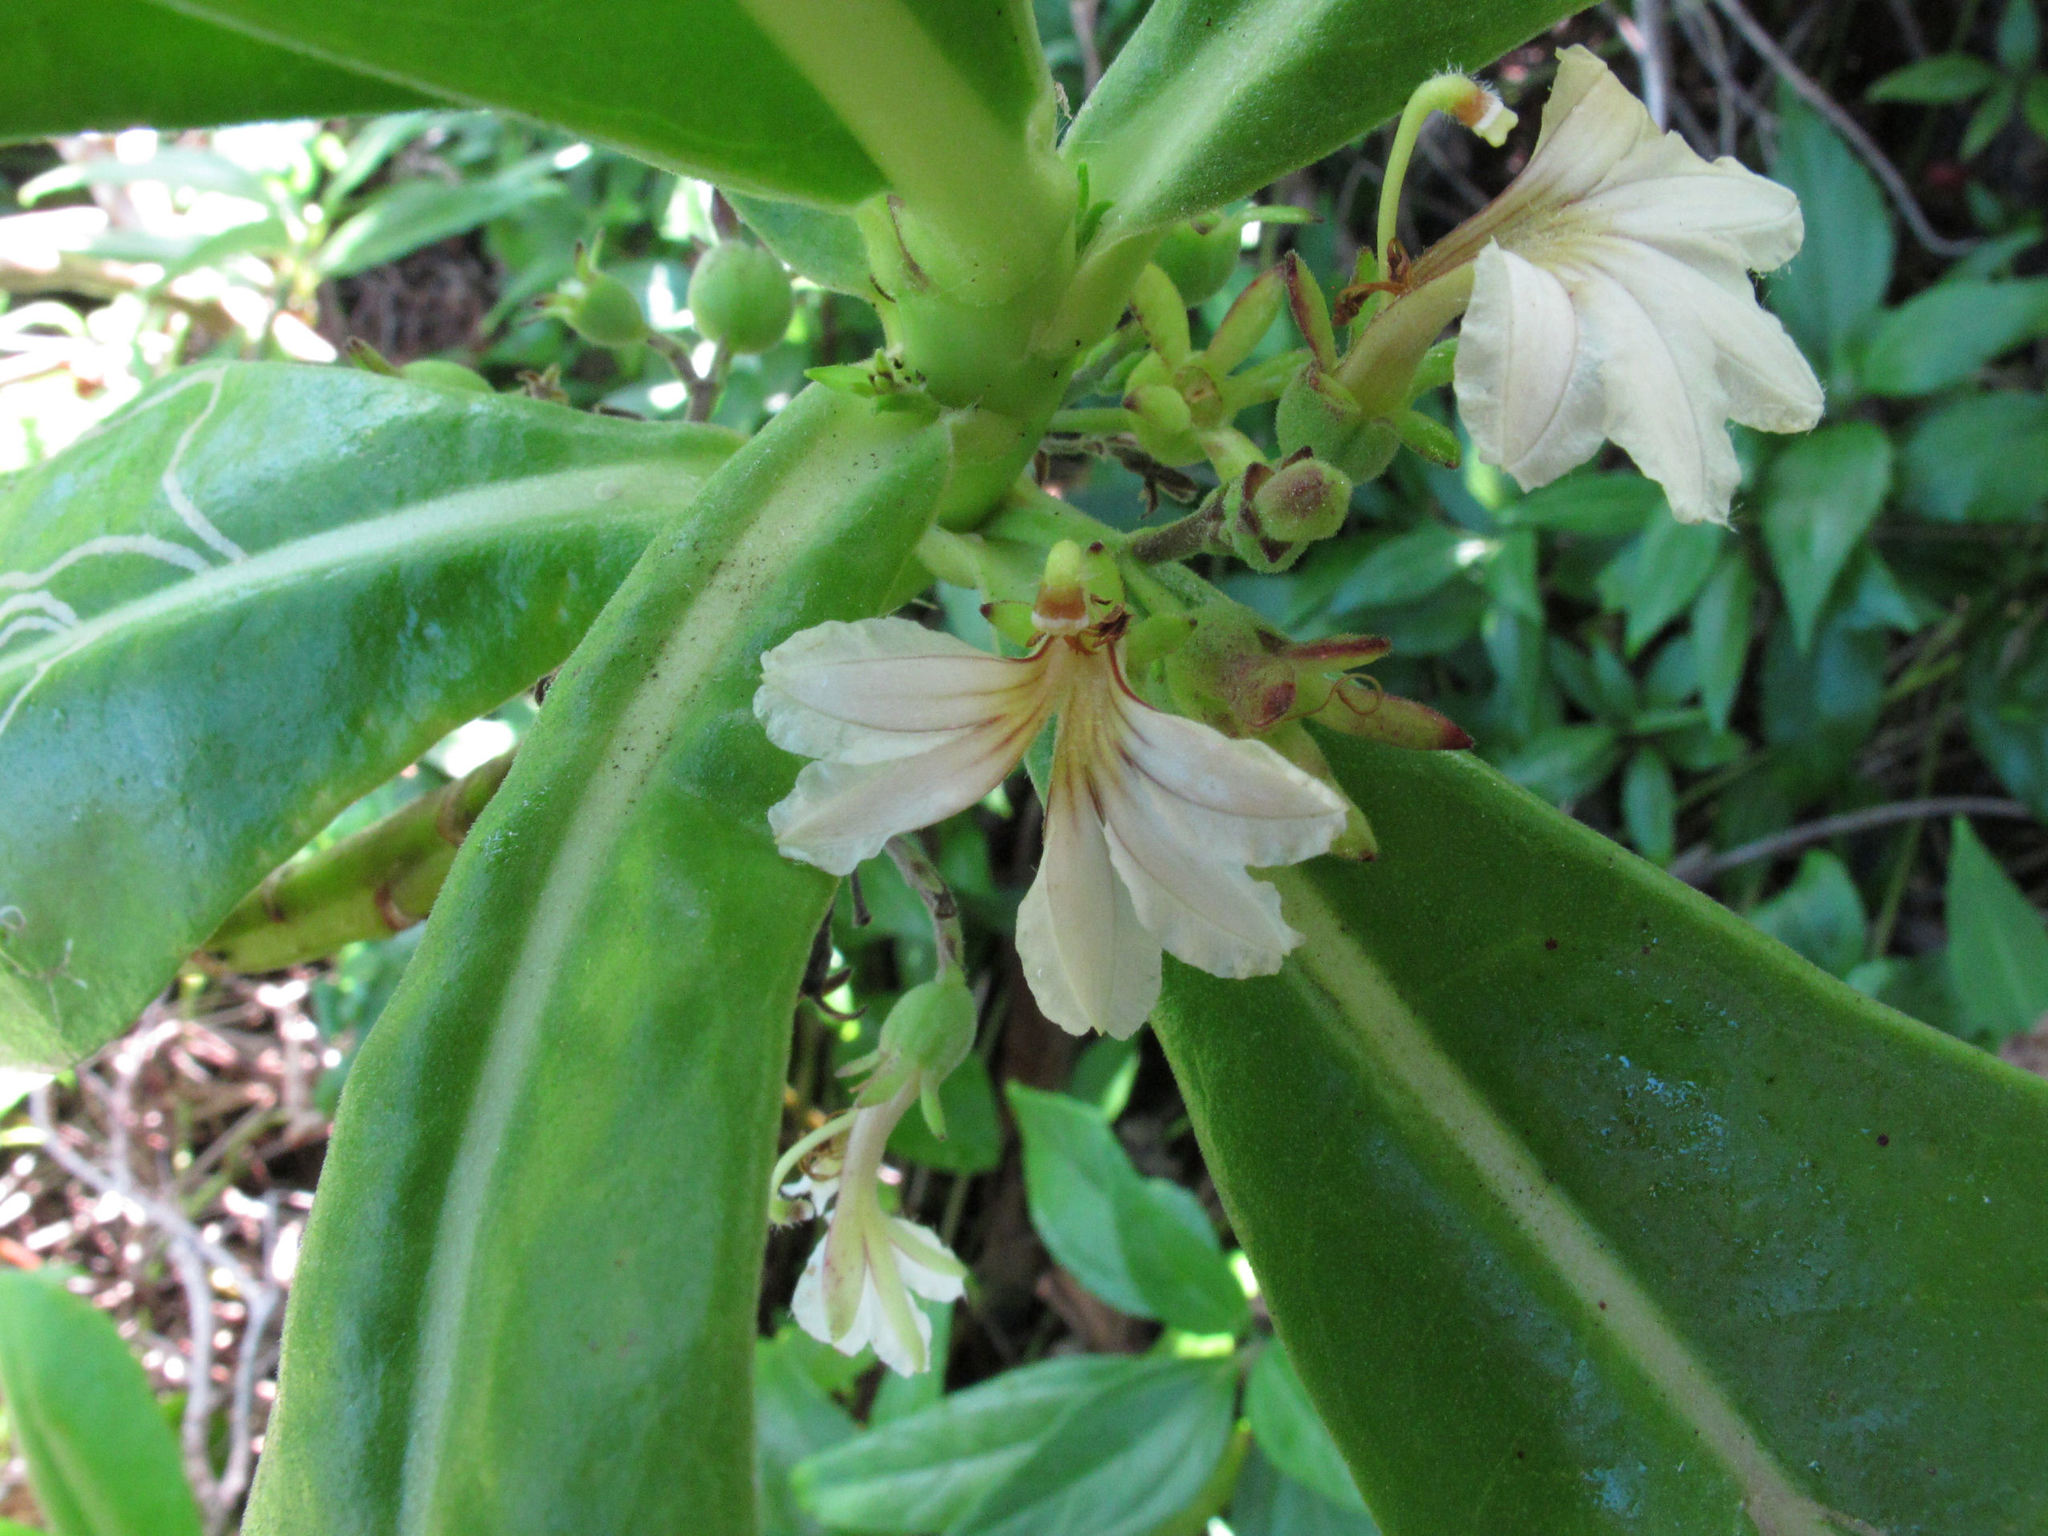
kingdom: Plantae
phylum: Tracheophyta
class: Magnoliopsida
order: Asterales
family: Goodeniaceae
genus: Scaevola
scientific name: Scaevola taccada
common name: Sea lettucetree
